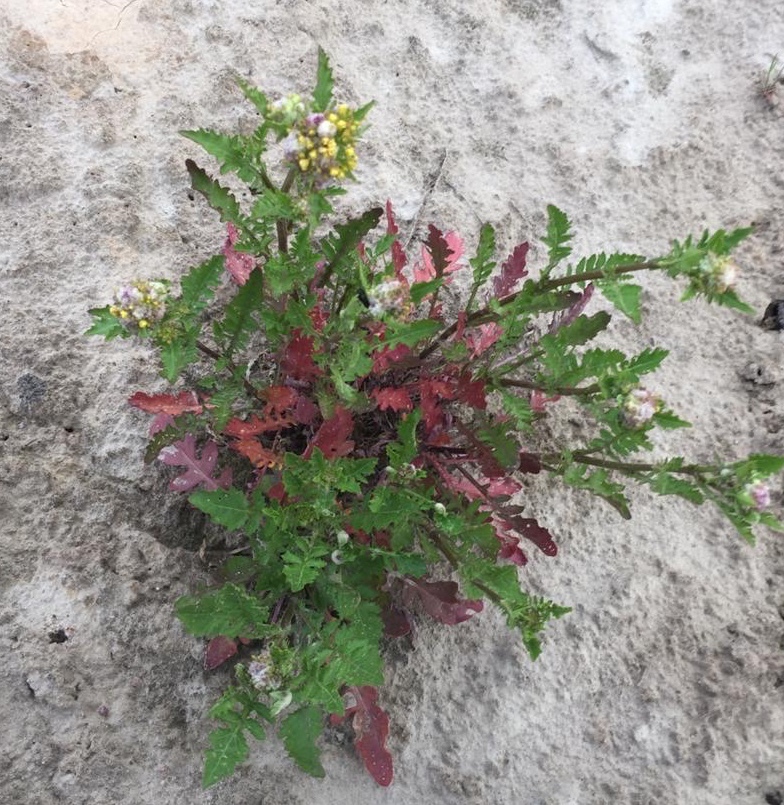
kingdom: Plantae
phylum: Tracheophyta
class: Magnoliopsida
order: Brassicales
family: Brassicaceae
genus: Rorippa
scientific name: Rorippa palustris
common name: Marsh yellow-cress
